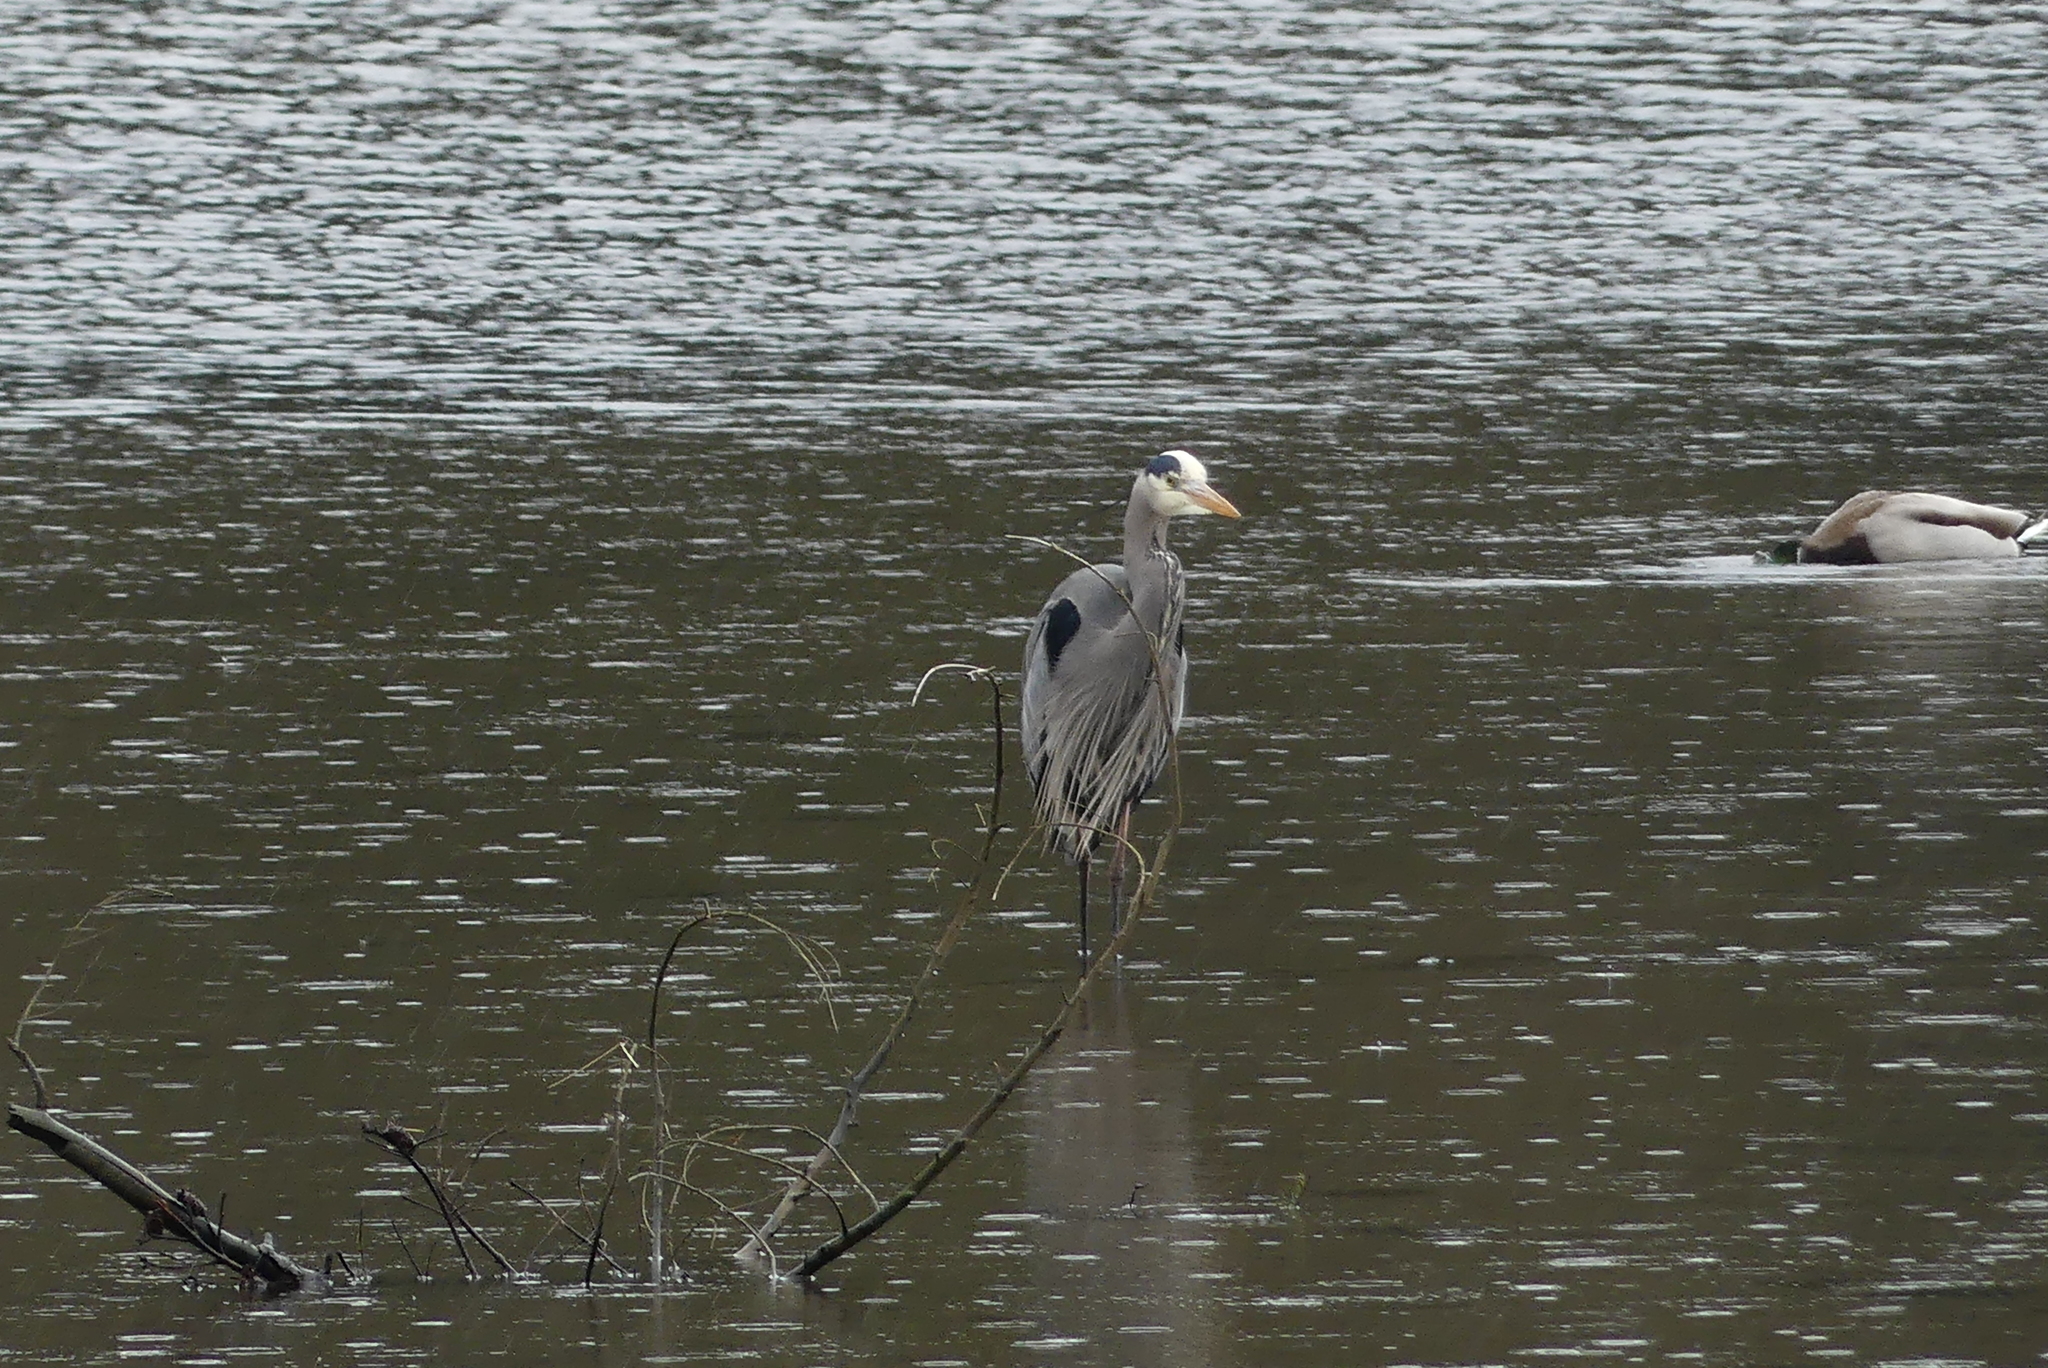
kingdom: Animalia
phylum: Chordata
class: Aves
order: Pelecaniformes
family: Ardeidae
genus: Ardea
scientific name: Ardea herodias
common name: Great blue heron
